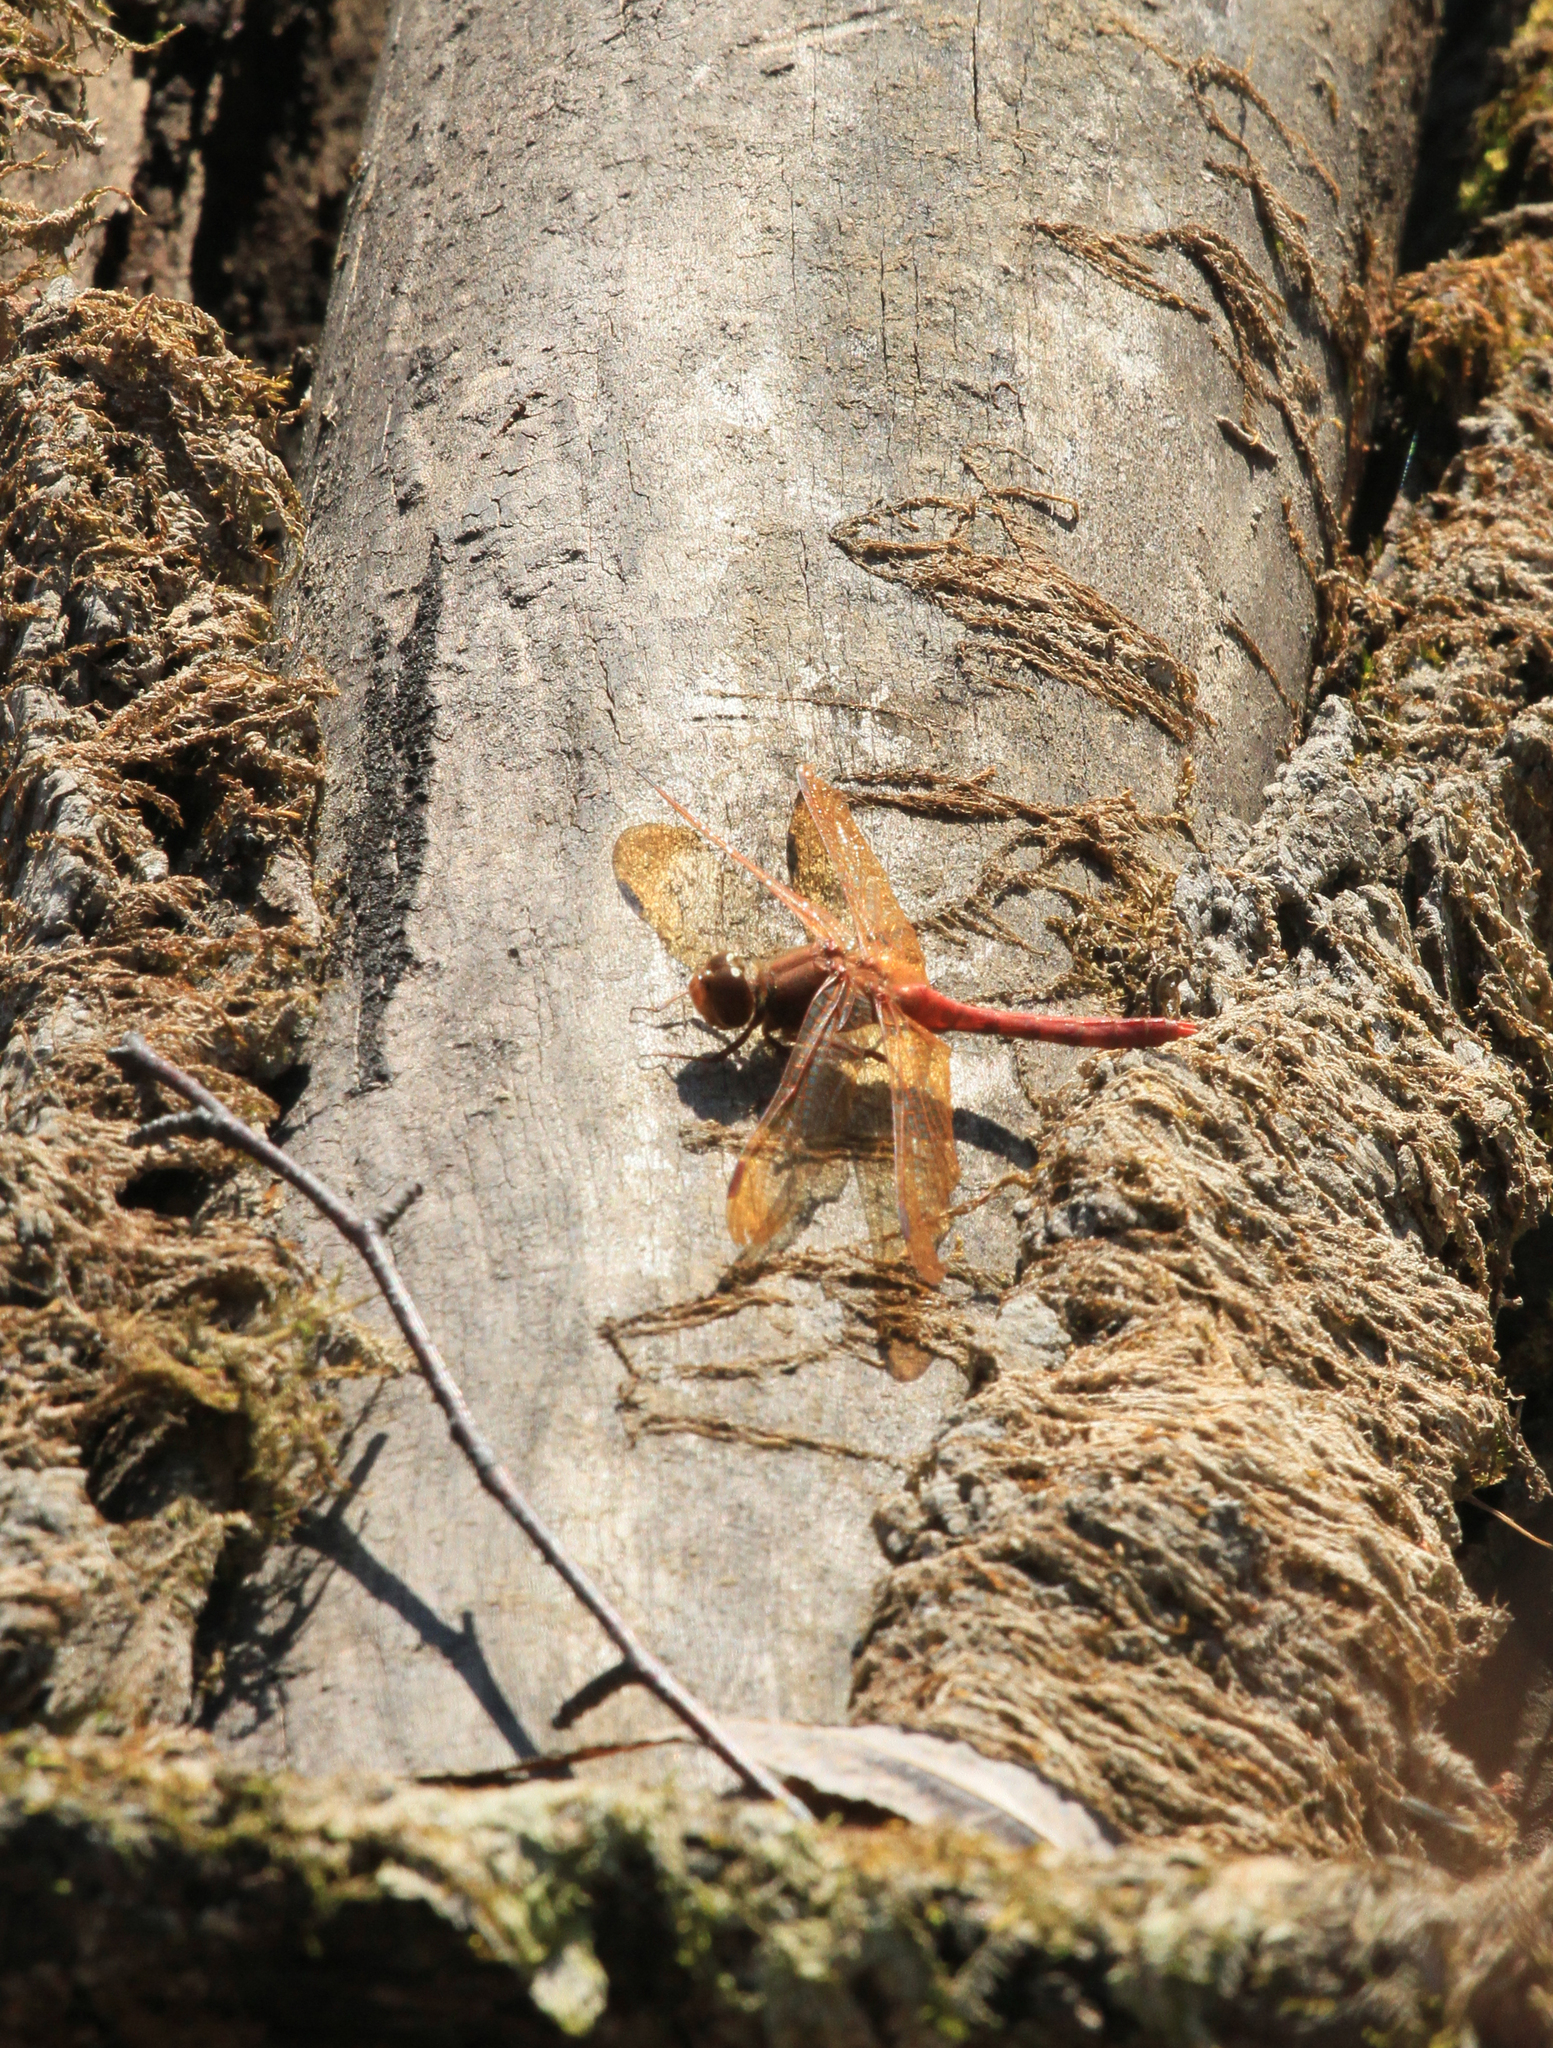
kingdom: Animalia
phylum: Arthropoda
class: Insecta
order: Odonata
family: Libellulidae
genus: Sympetrum
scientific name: Sympetrum croceolum
